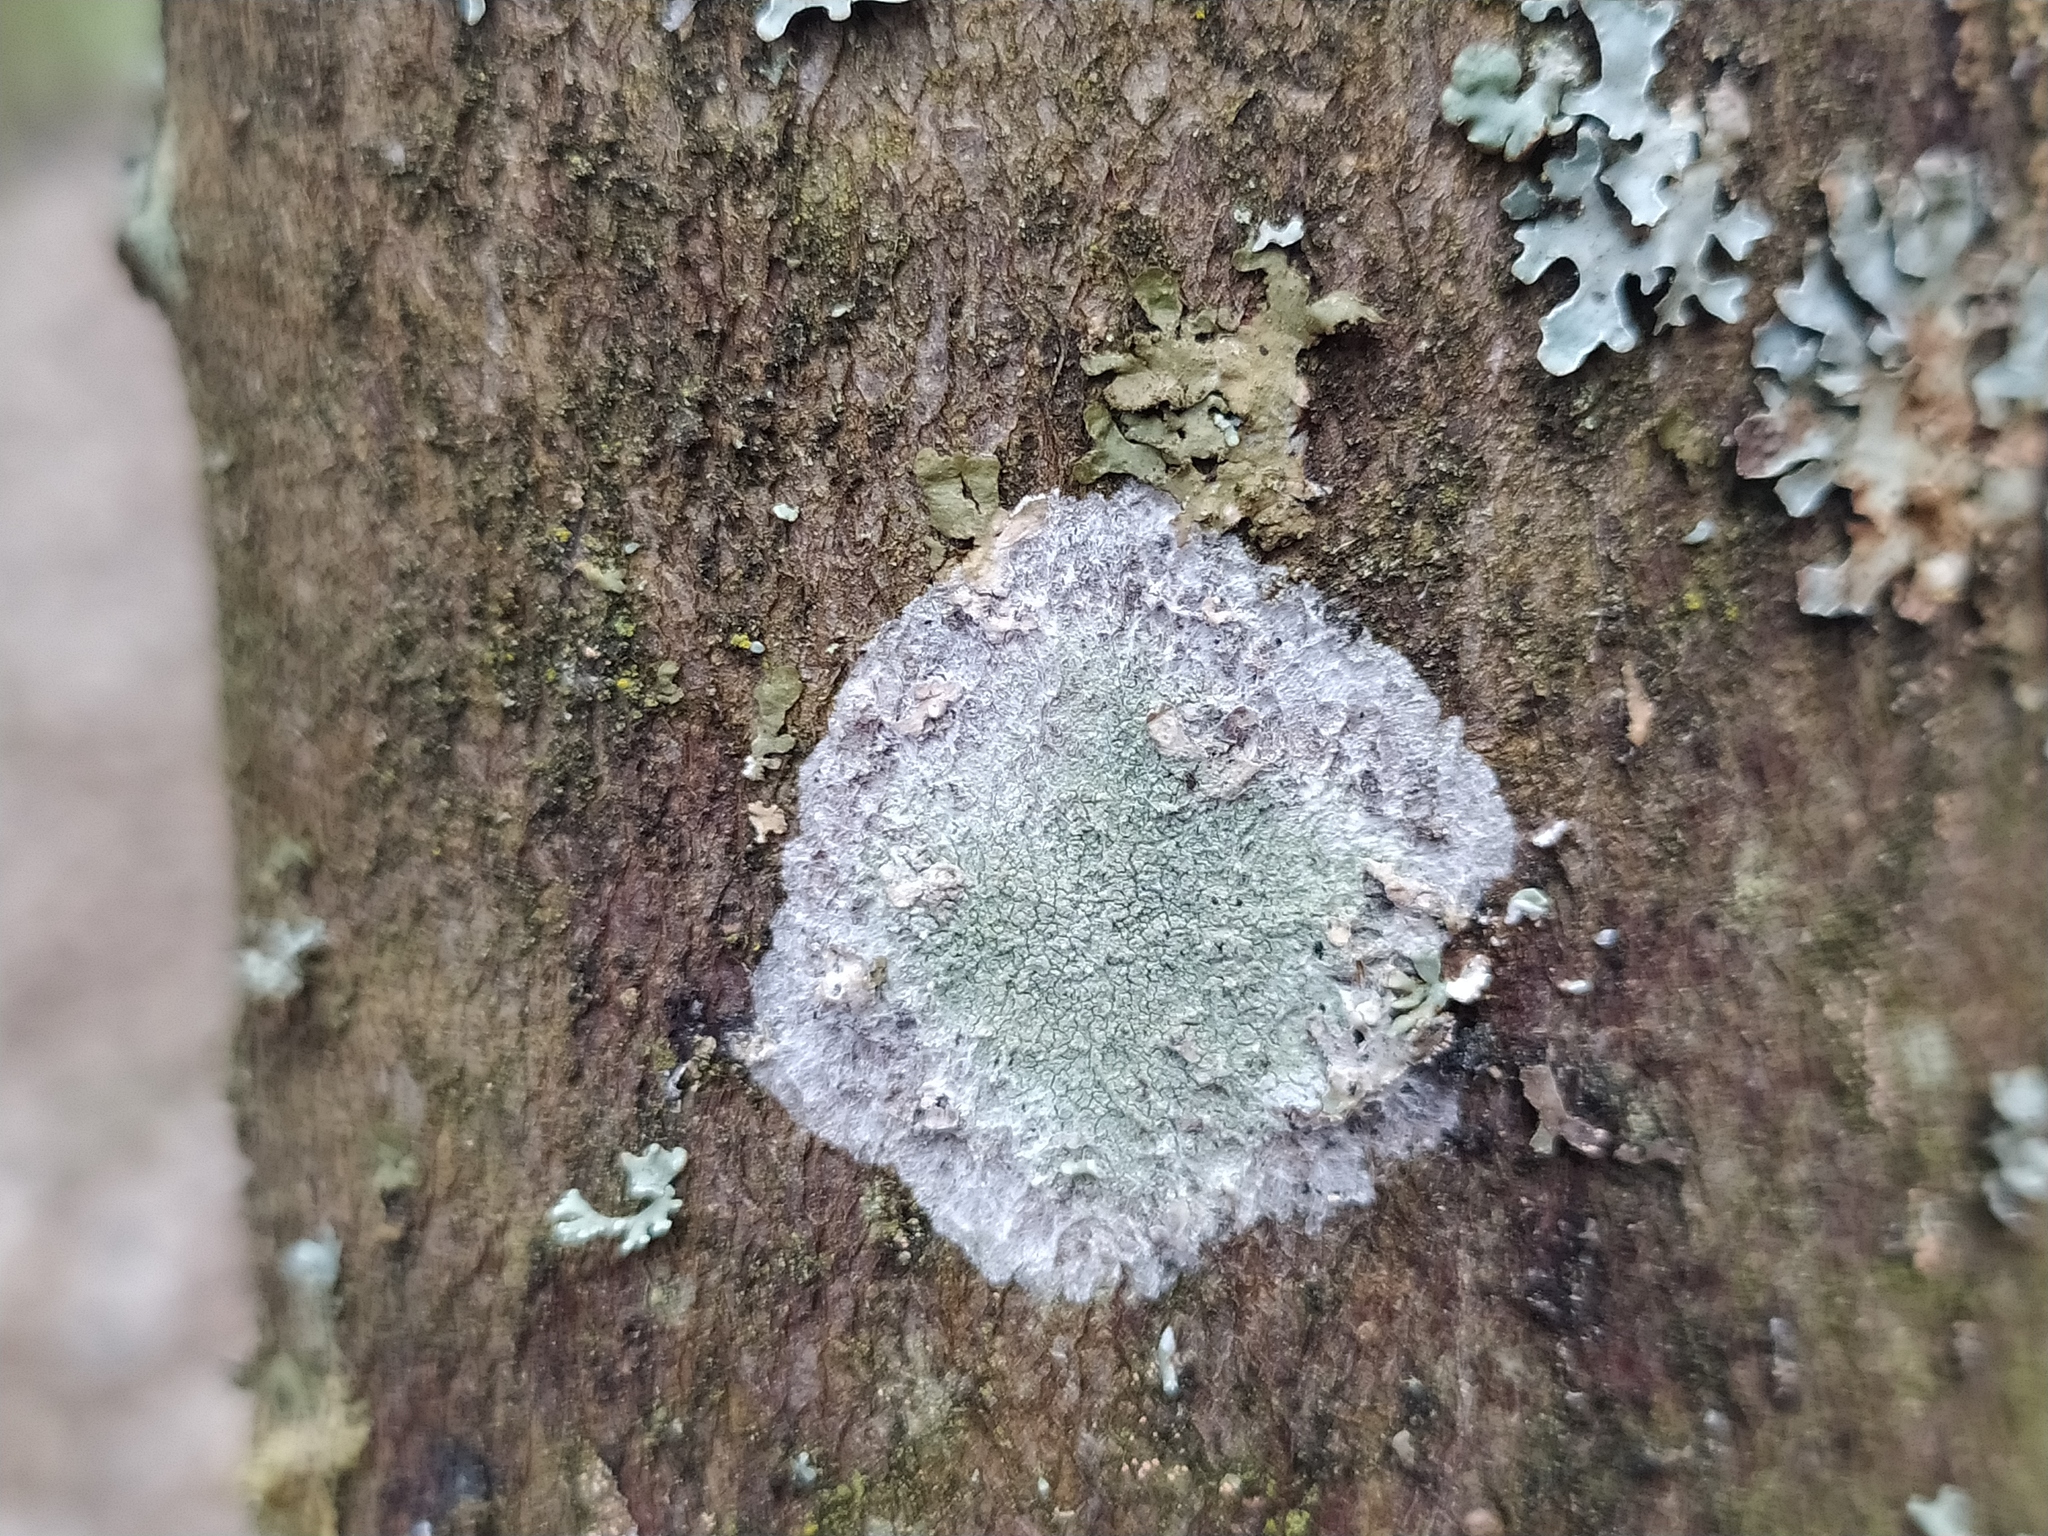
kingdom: Fungi
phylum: Ascomycota
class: Lecanoromycetes
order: Ostropales
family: Phlyctidaceae
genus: Phlyctis
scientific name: Phlyctis argena
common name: Whitewash lichen
